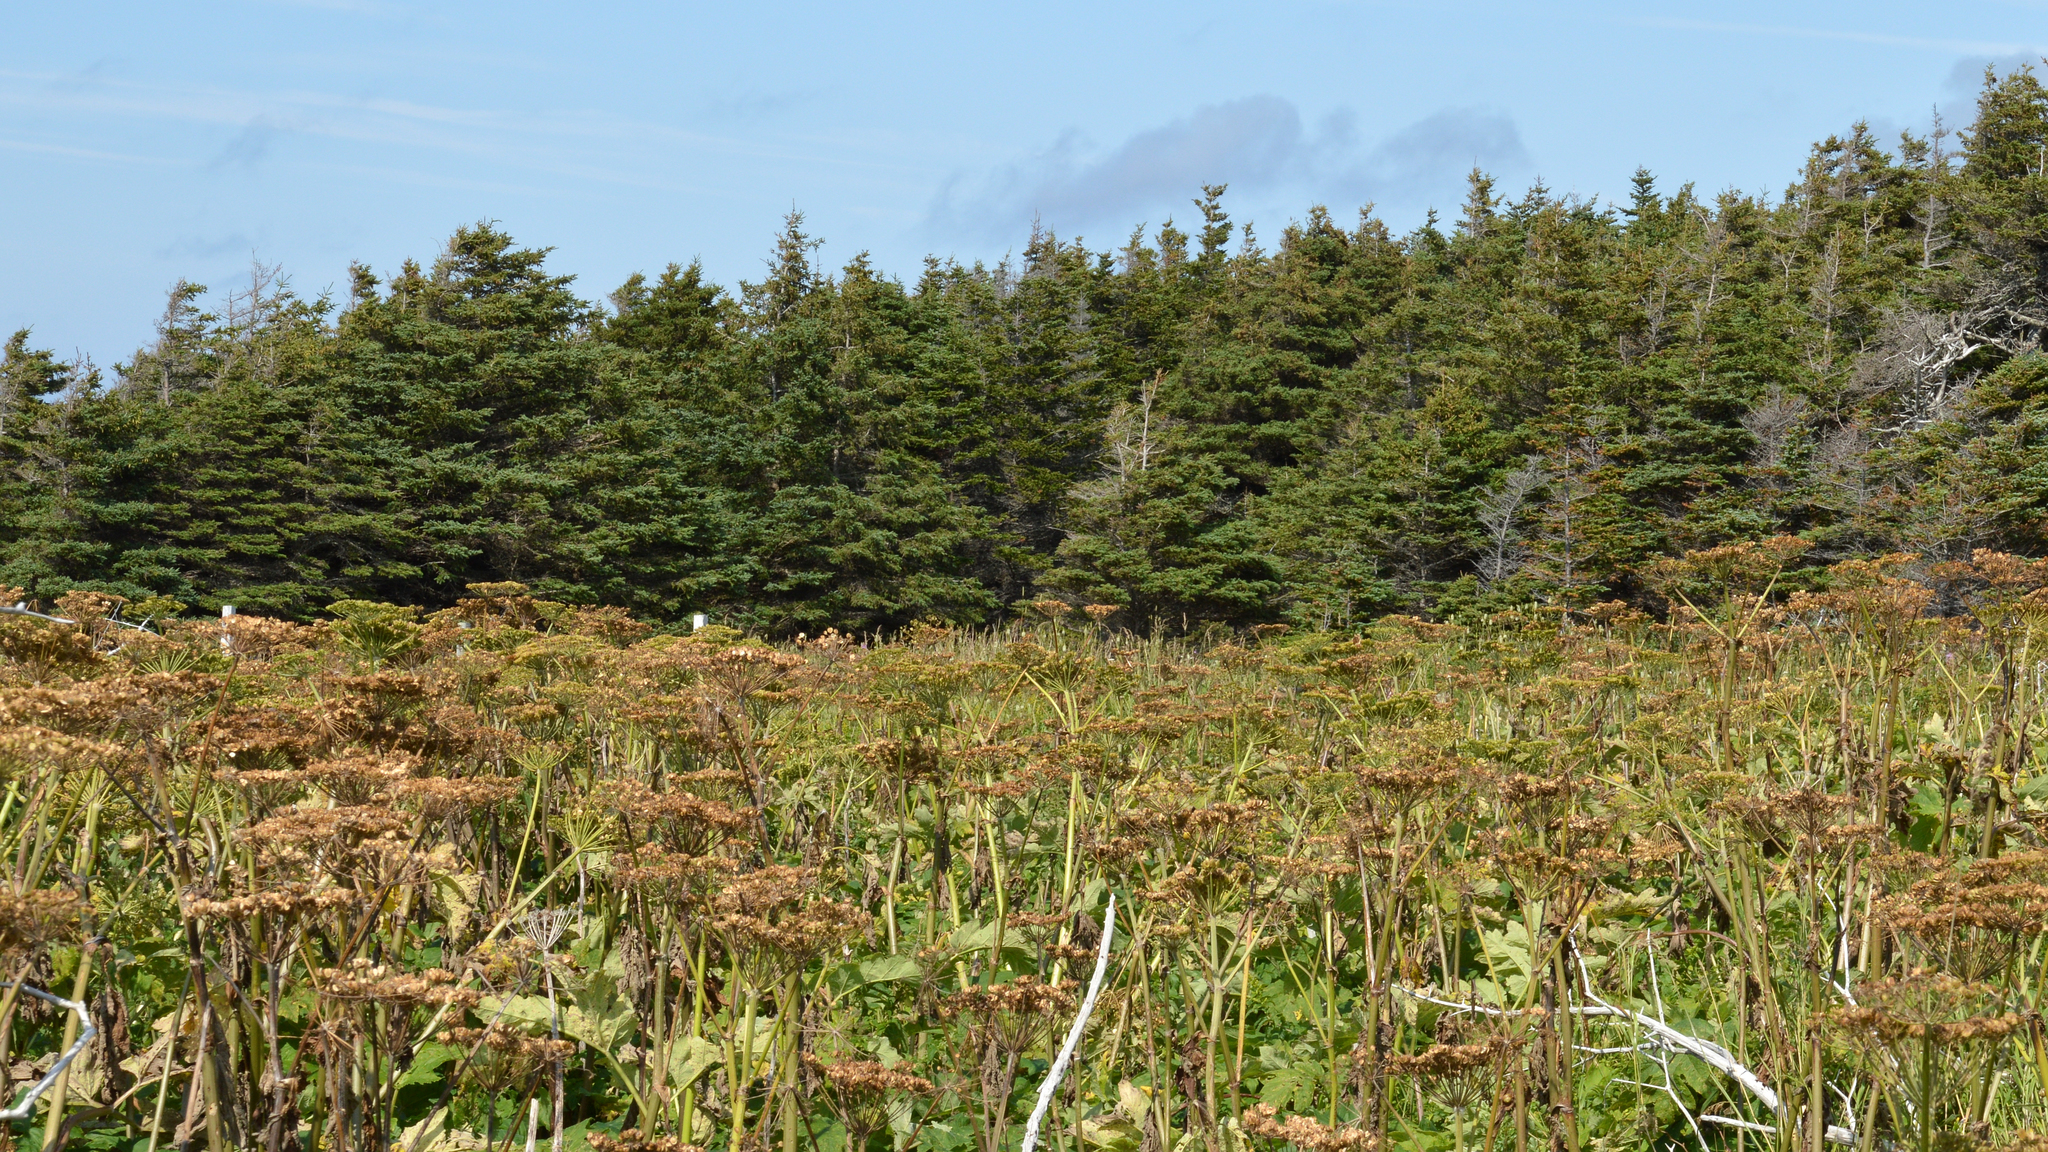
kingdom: Plantae
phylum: Tracheophyta
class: Magnoliopsida
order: Apiales
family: Apiaceae
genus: Heracleum
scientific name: Heracleum maximum
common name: American cow parsnip
